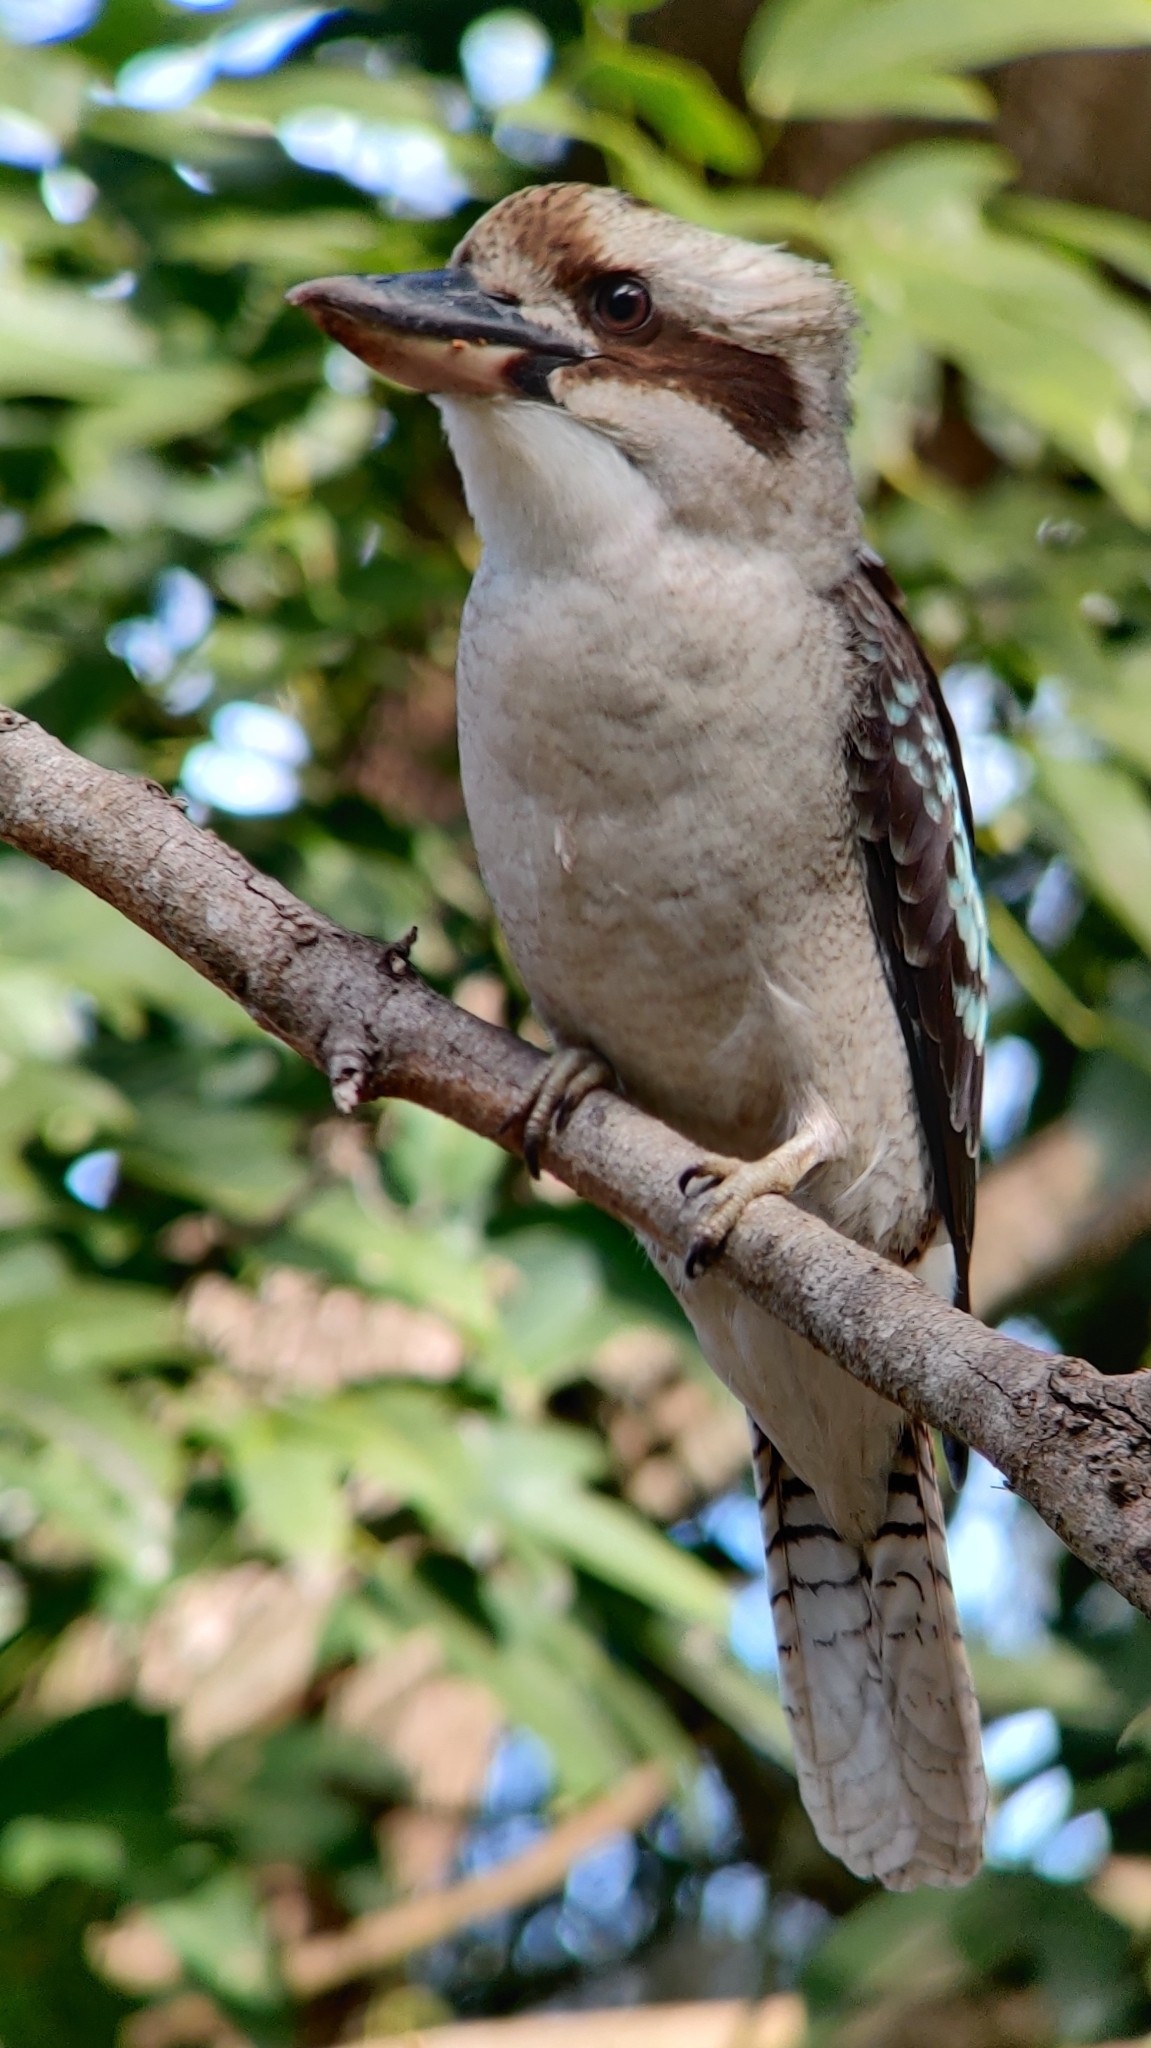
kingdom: Animalia
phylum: Chordata
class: Aves
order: Coraciiformes
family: Alcedinidae
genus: Dacelo
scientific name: Dacelo novaeguineae
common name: Laughing kookaburra
